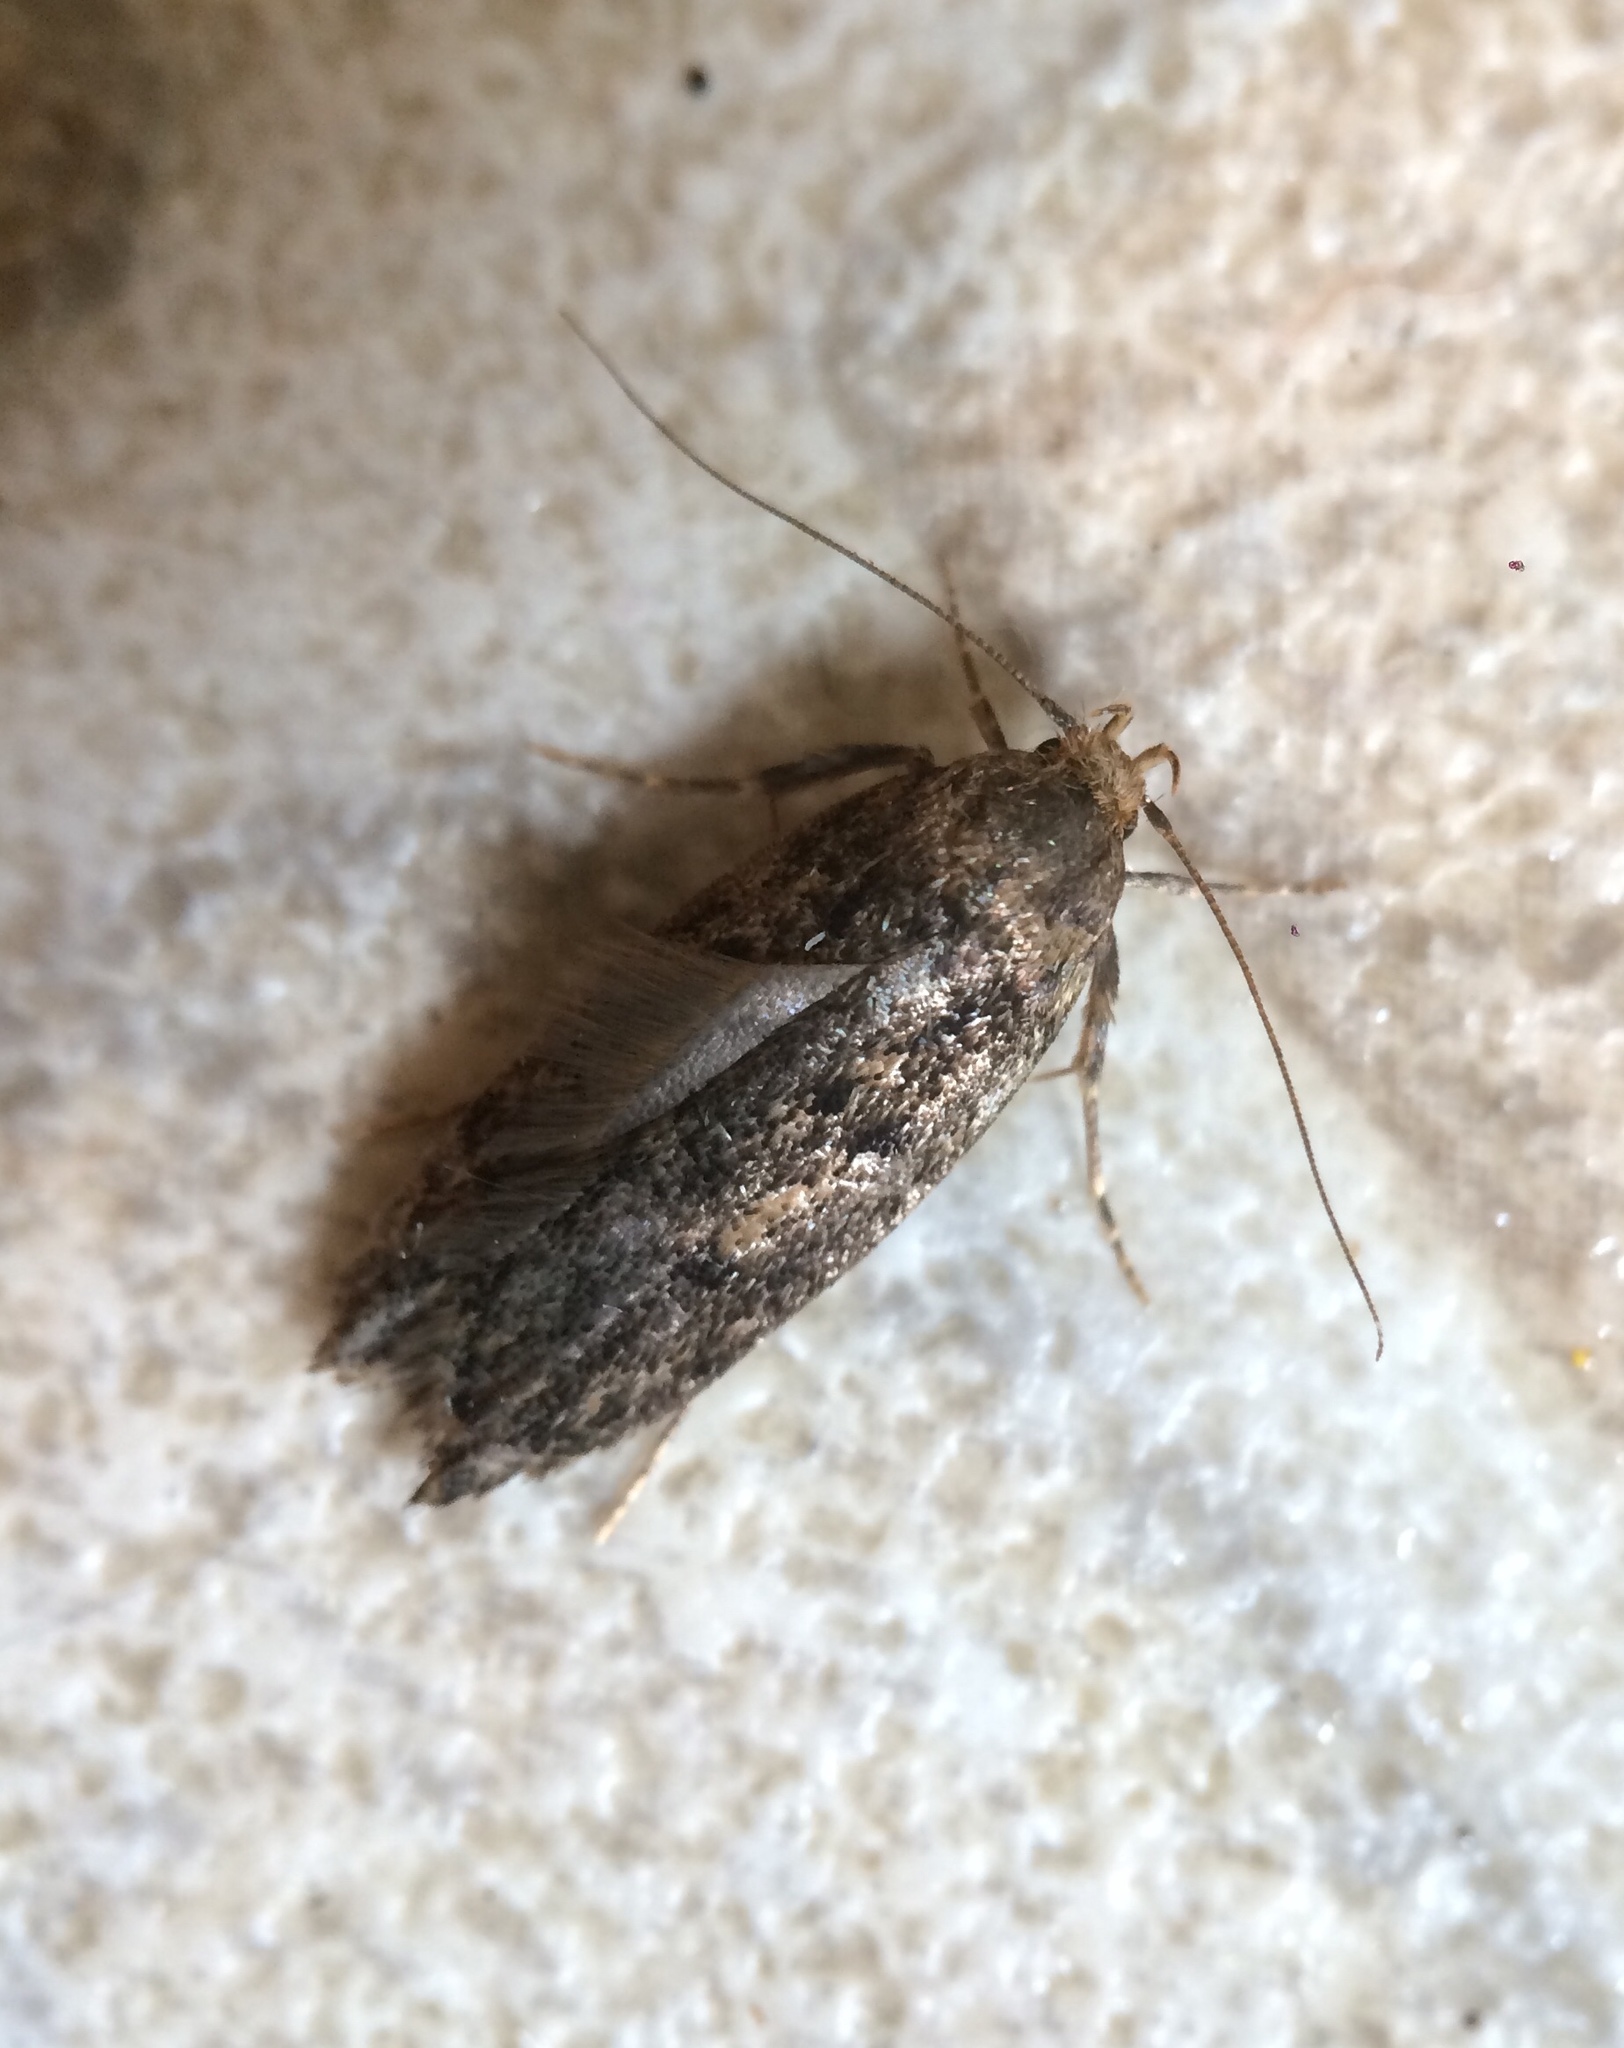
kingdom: Animalia
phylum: Arthropoda
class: Insecta
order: Lepidoptera
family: Oecophoridae
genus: Hofmannophila
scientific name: Hofmannophila pseudospretella
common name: Brown house moth
